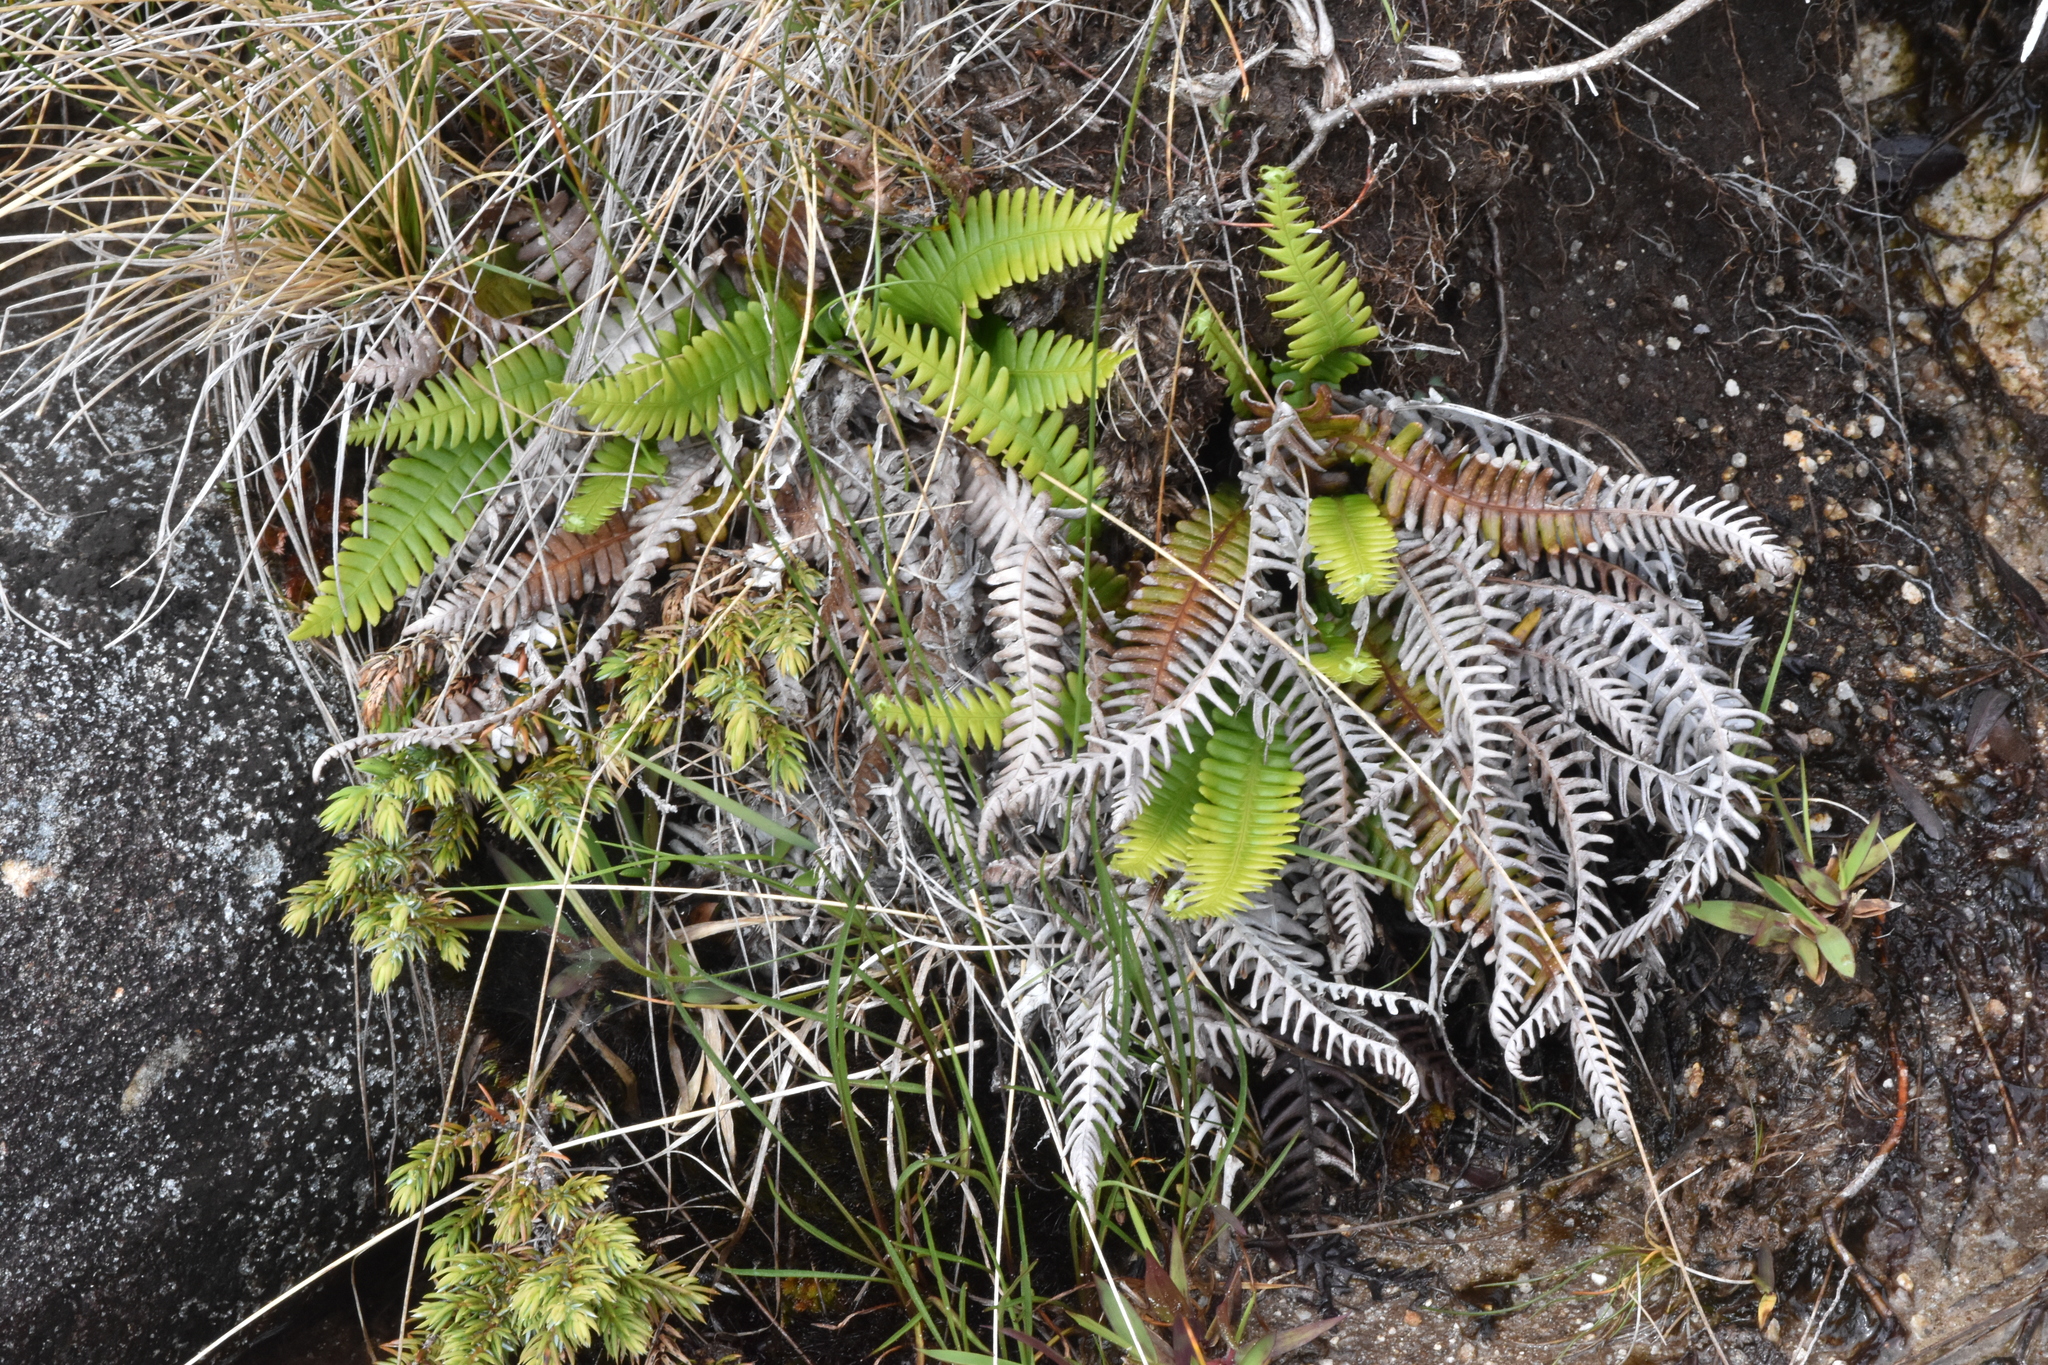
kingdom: Plantae
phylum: Tracheophyta
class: Polypodiopsida
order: Polypodiales
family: Blechnaceae
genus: Struthiopteris
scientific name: Struthiopteris spicant
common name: Deer fern
